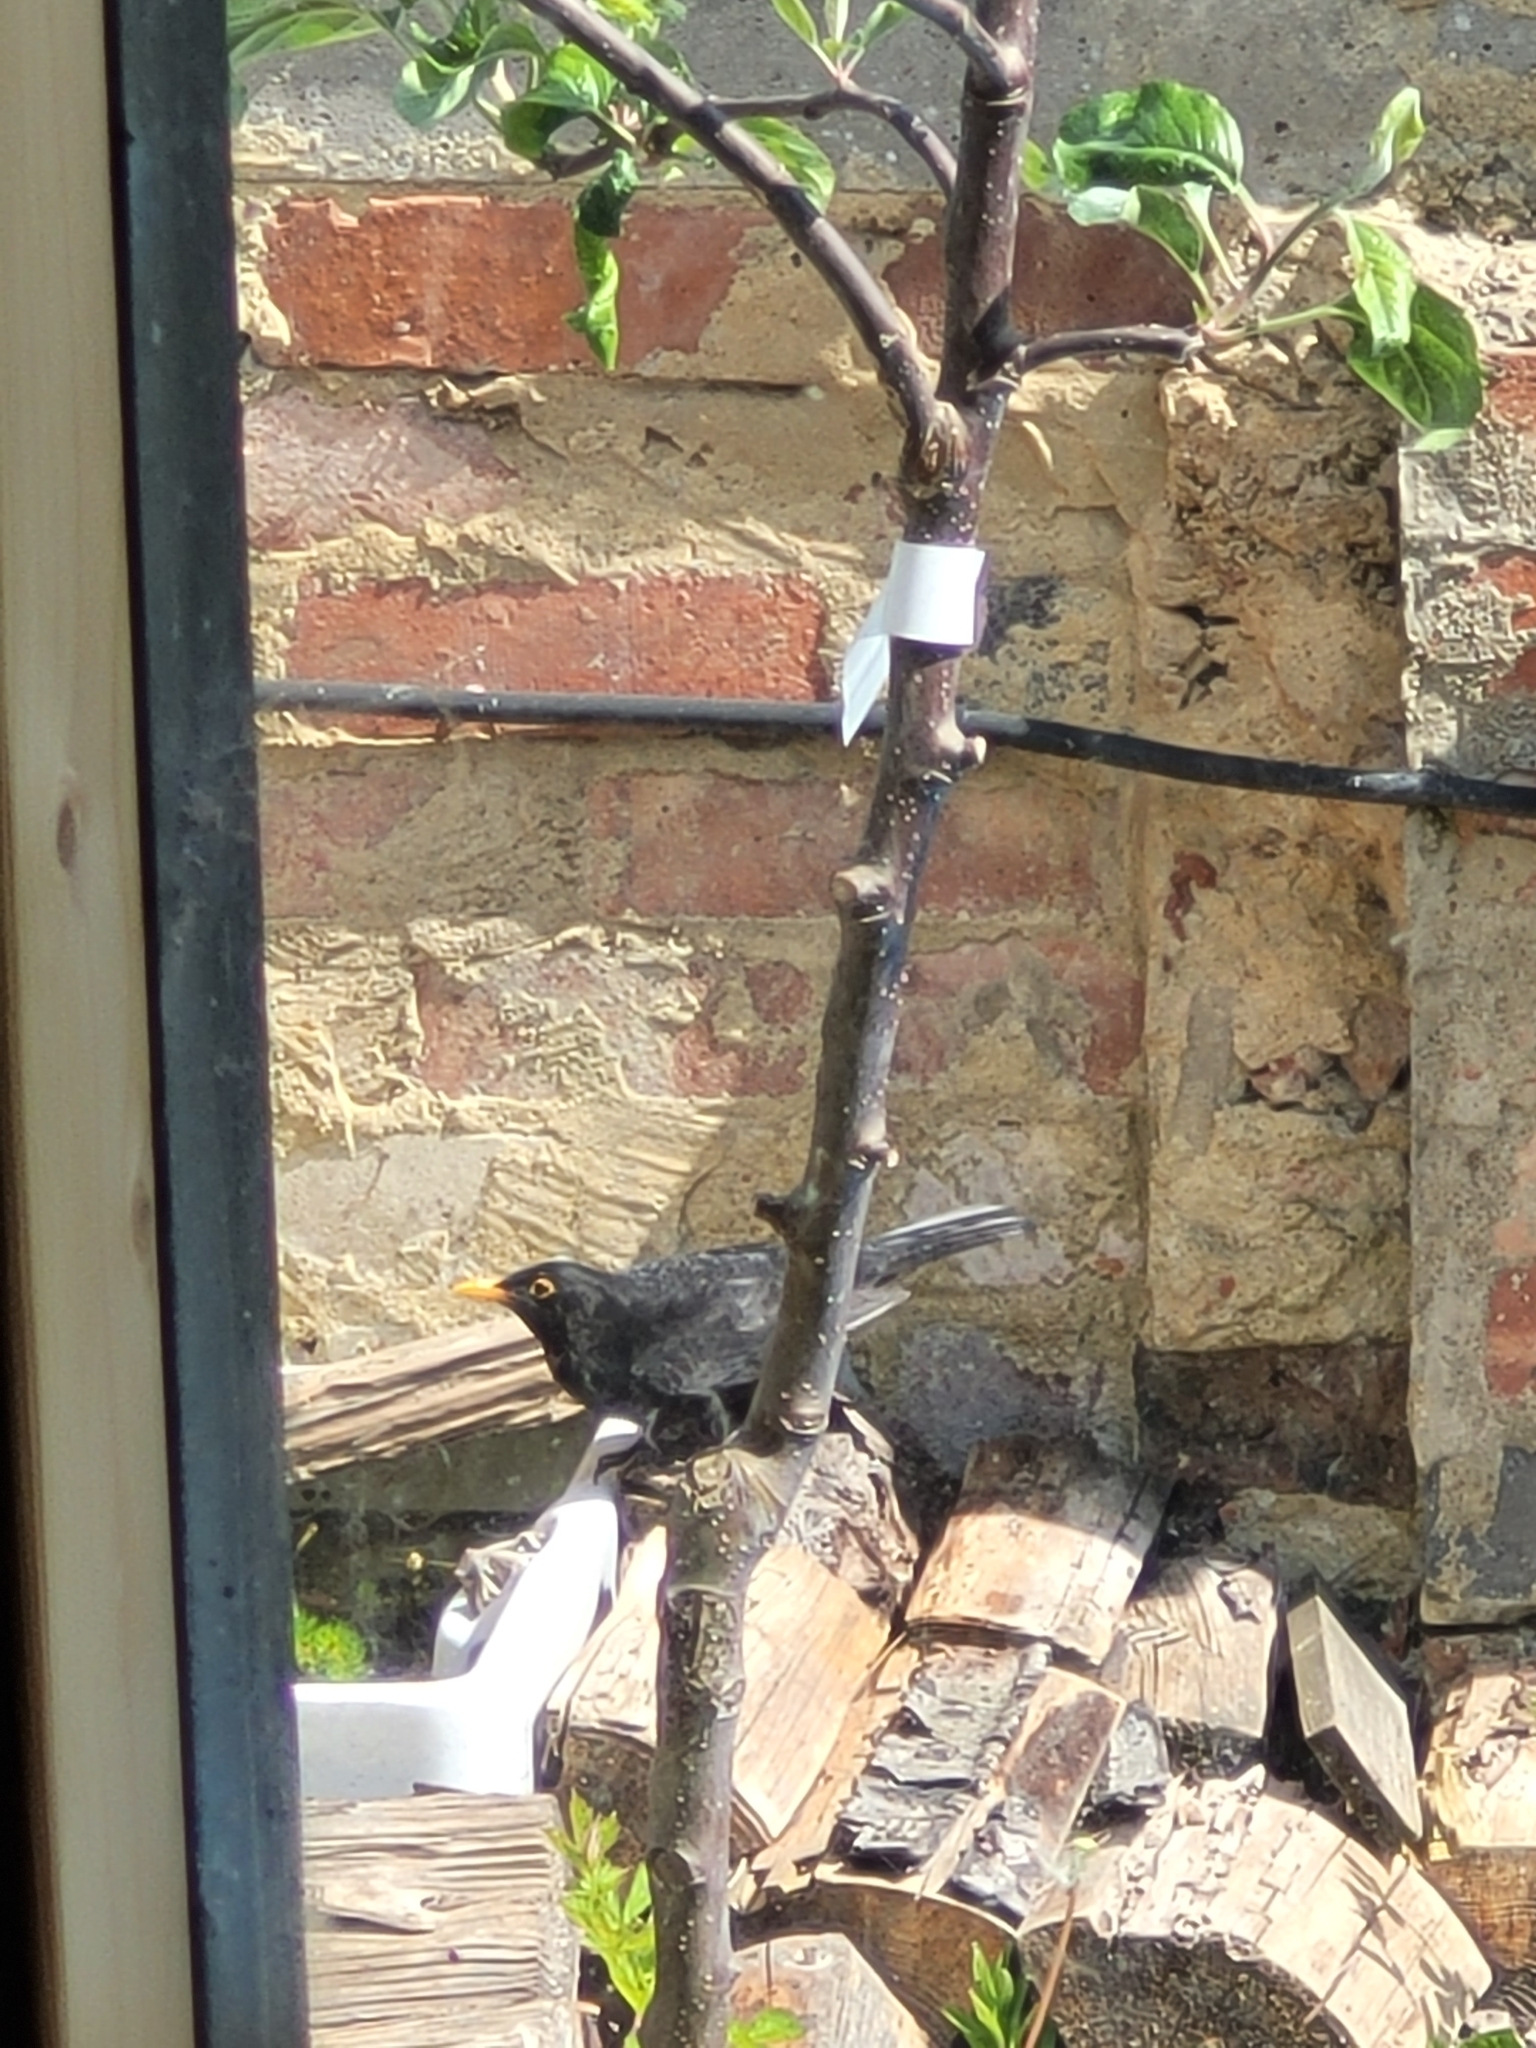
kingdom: Animalia
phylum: Chordata
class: Aves
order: Passeriformes
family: Turdidae
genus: Turdus
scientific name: Turdus merula
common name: Common blackbird
